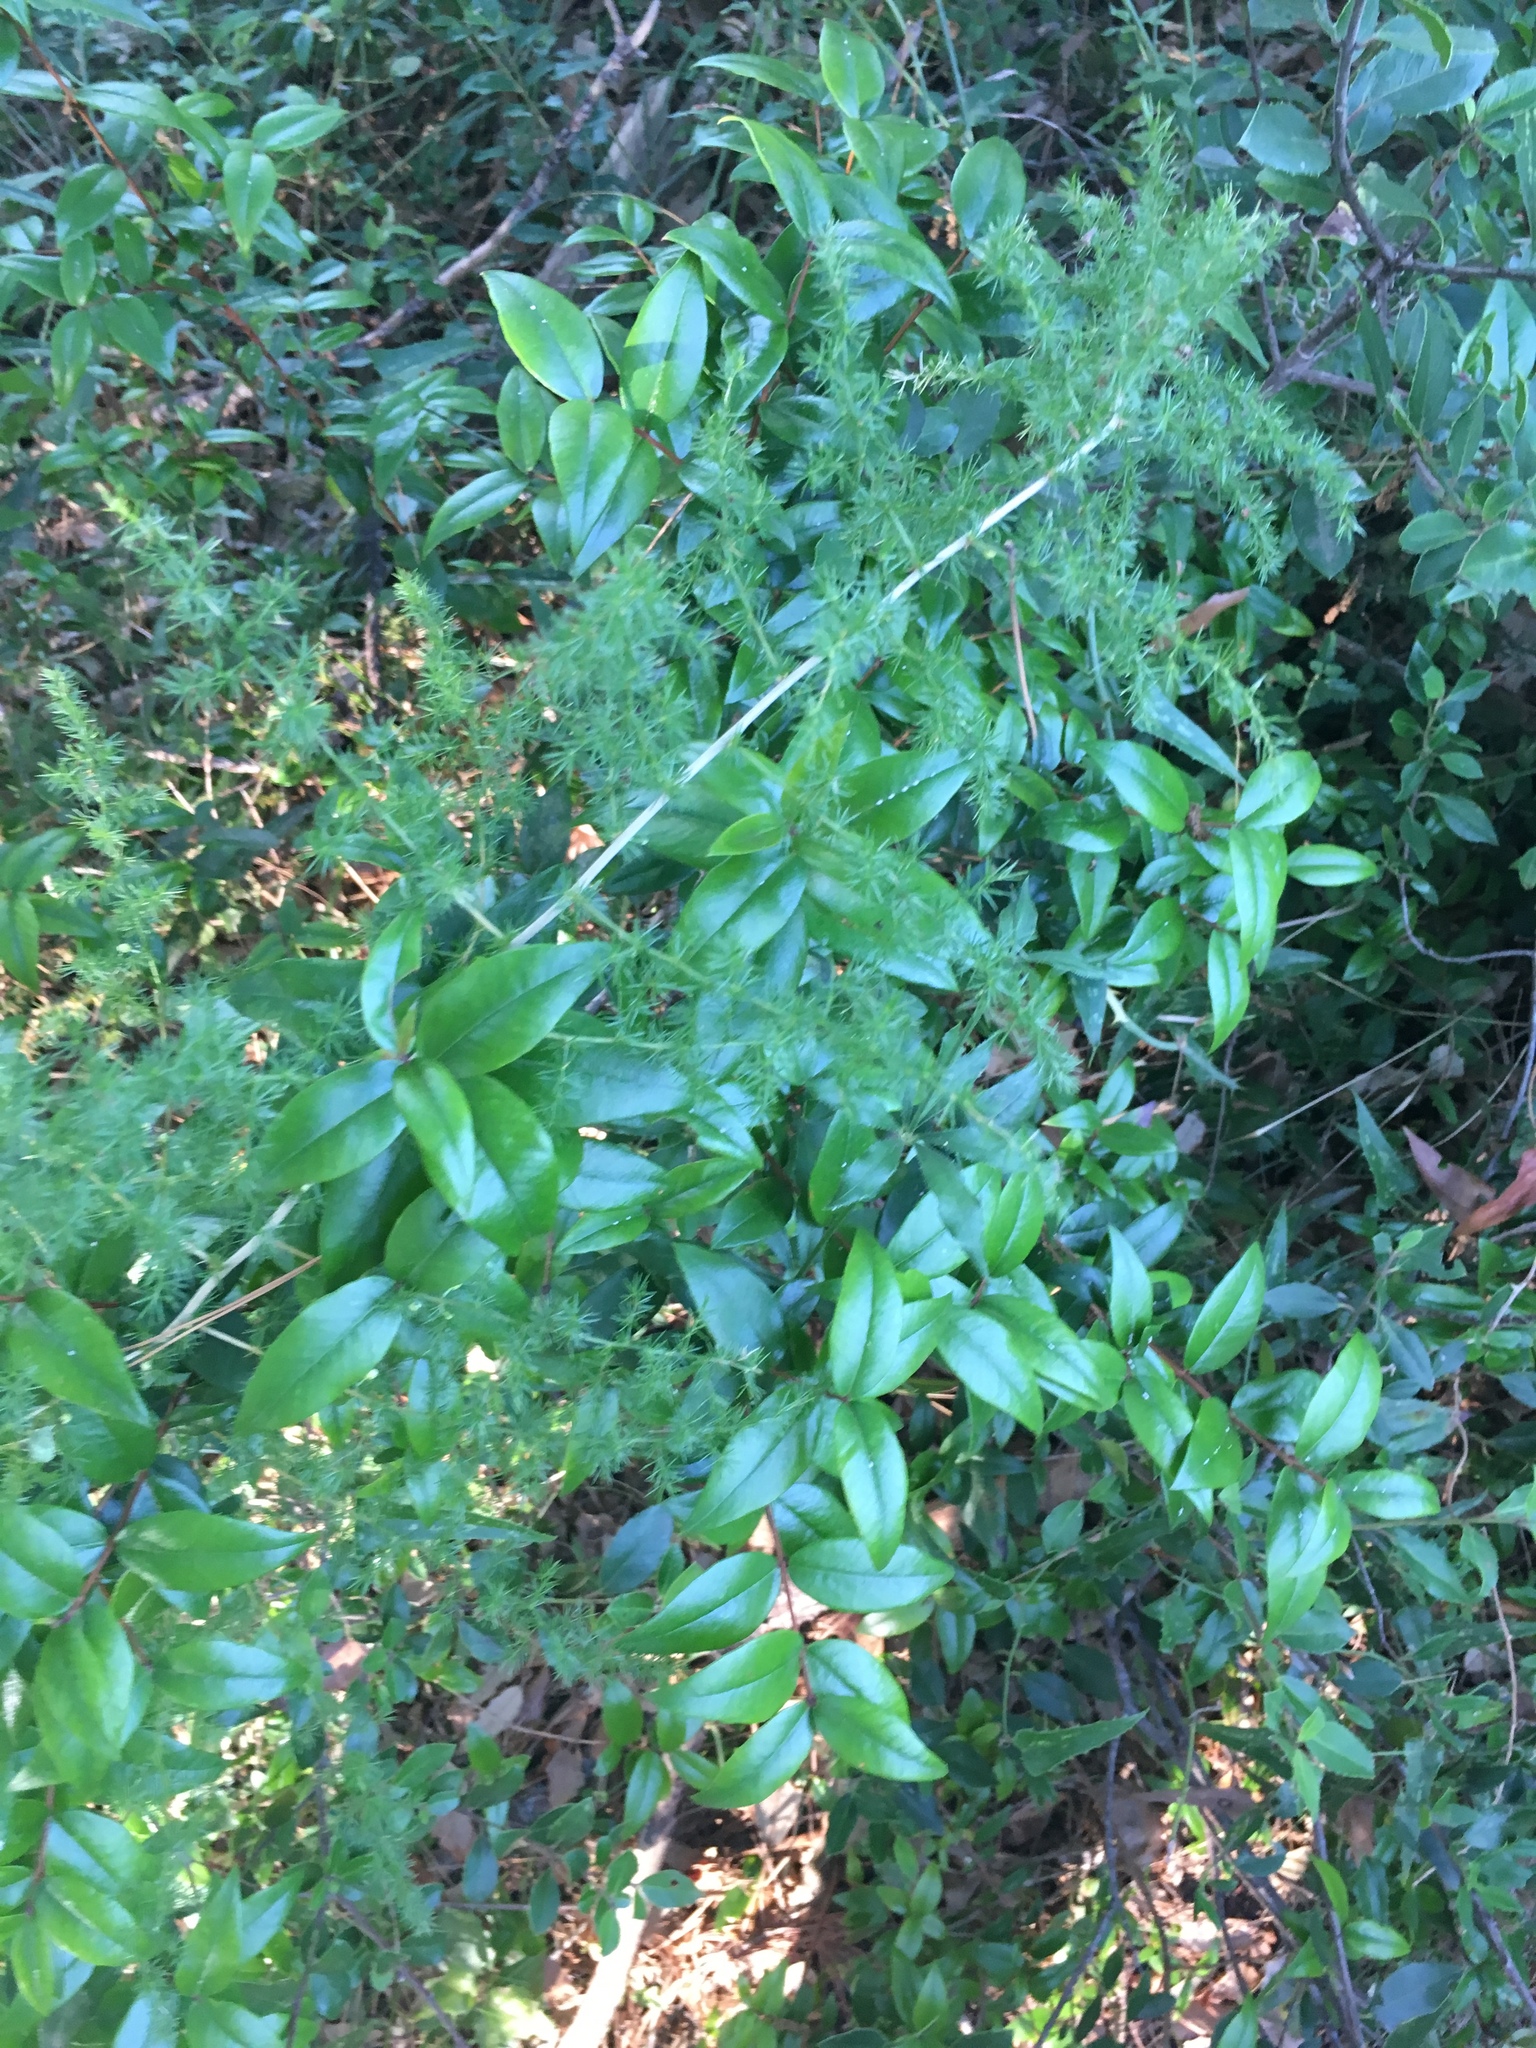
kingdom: Plantae
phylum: Tracheophyta
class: Magnoliopsida
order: Myrtales
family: Myrtaceae
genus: Myrtus
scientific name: Myrtus communis
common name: Myrtle
